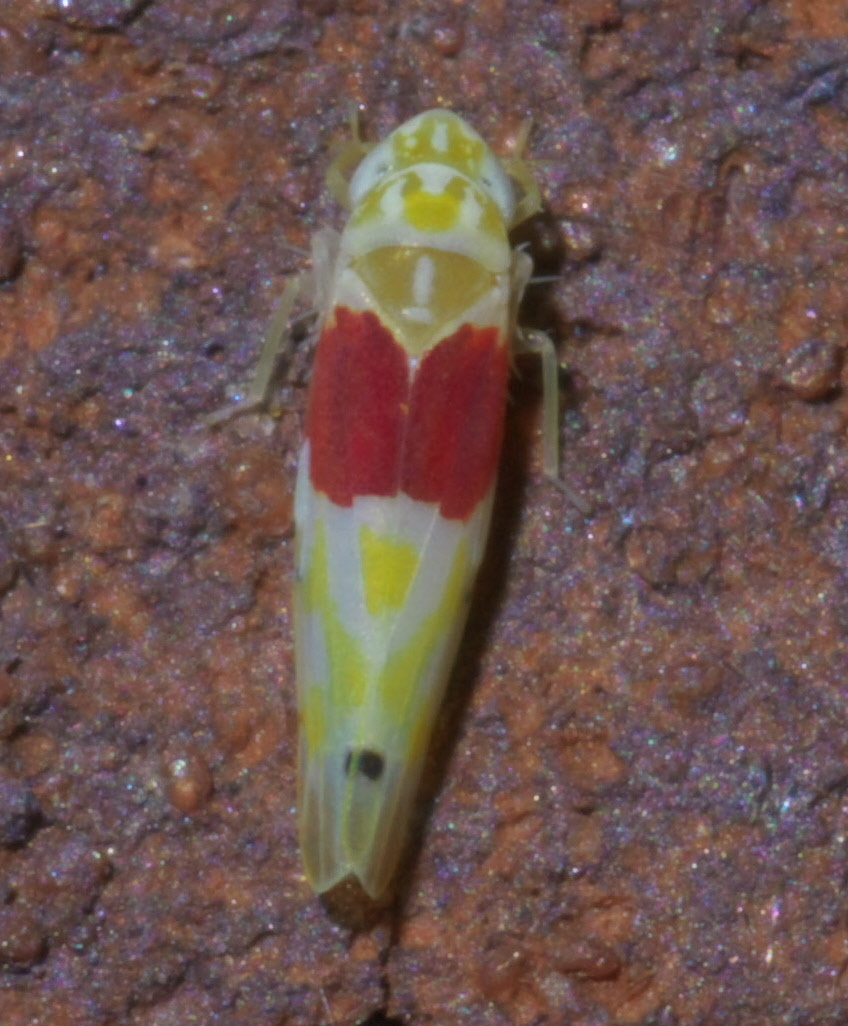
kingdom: Animalia
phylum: Arthropoda
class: Insecta
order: Hemiptera
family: Cicadellidae
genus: Eratoneura
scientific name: Eratoneura osborni
